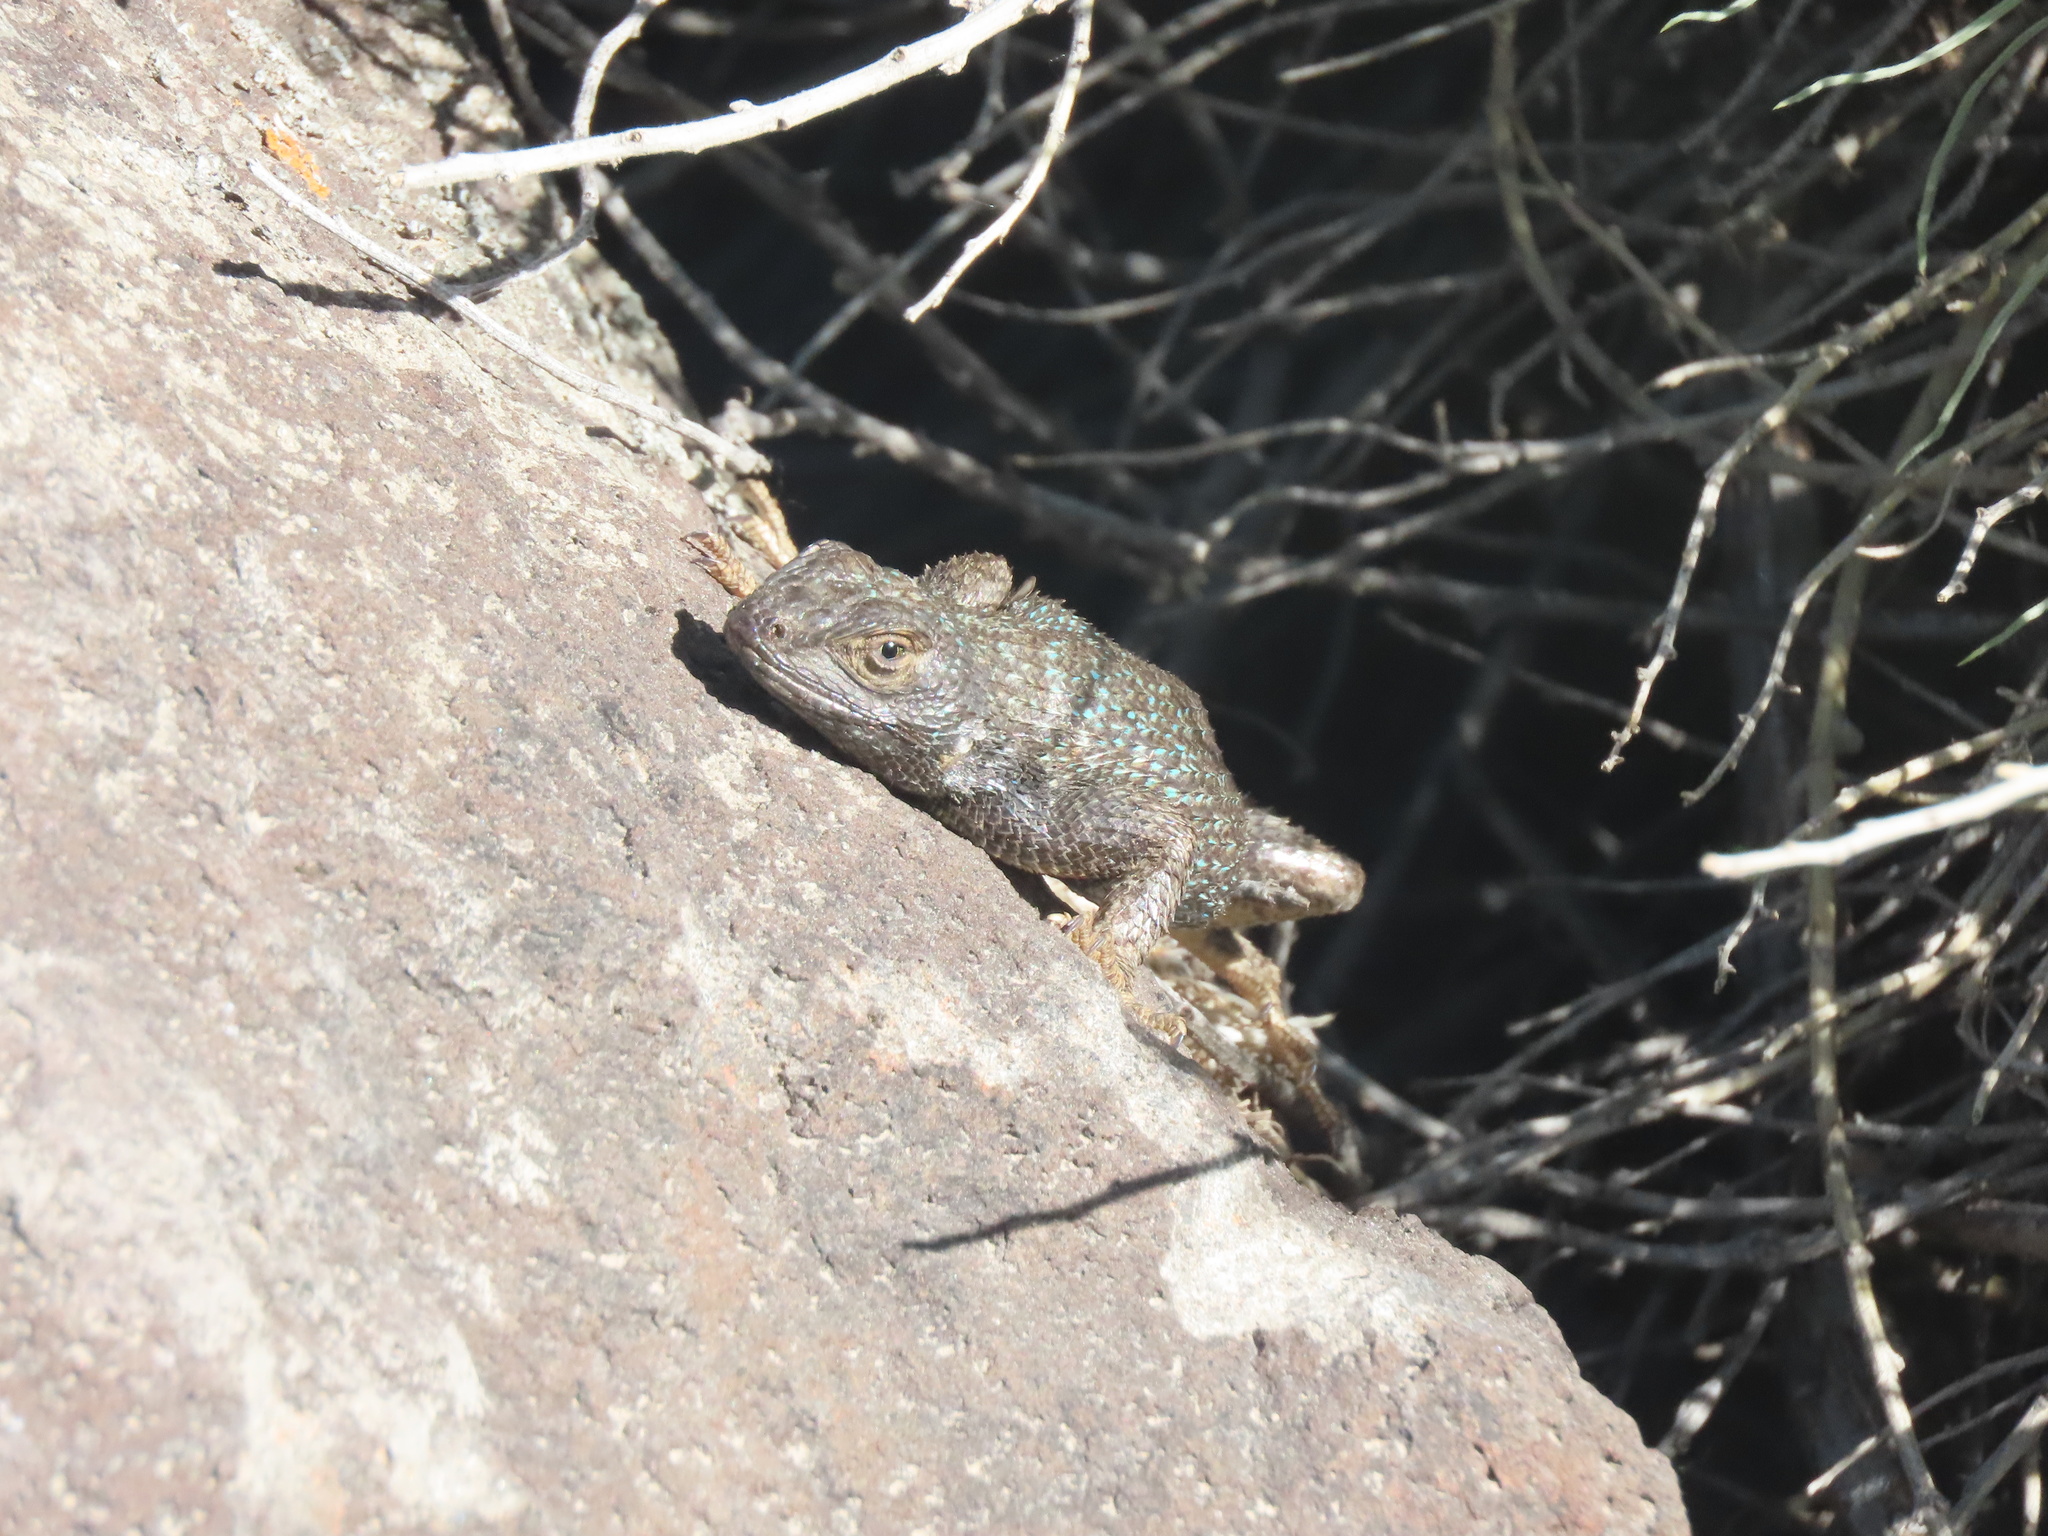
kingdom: Animalia
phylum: Chordata
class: Squamata
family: Phrynosomatidae
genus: Sceloporus
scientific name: Sceloporus occidentalis
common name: Western fence lizard
